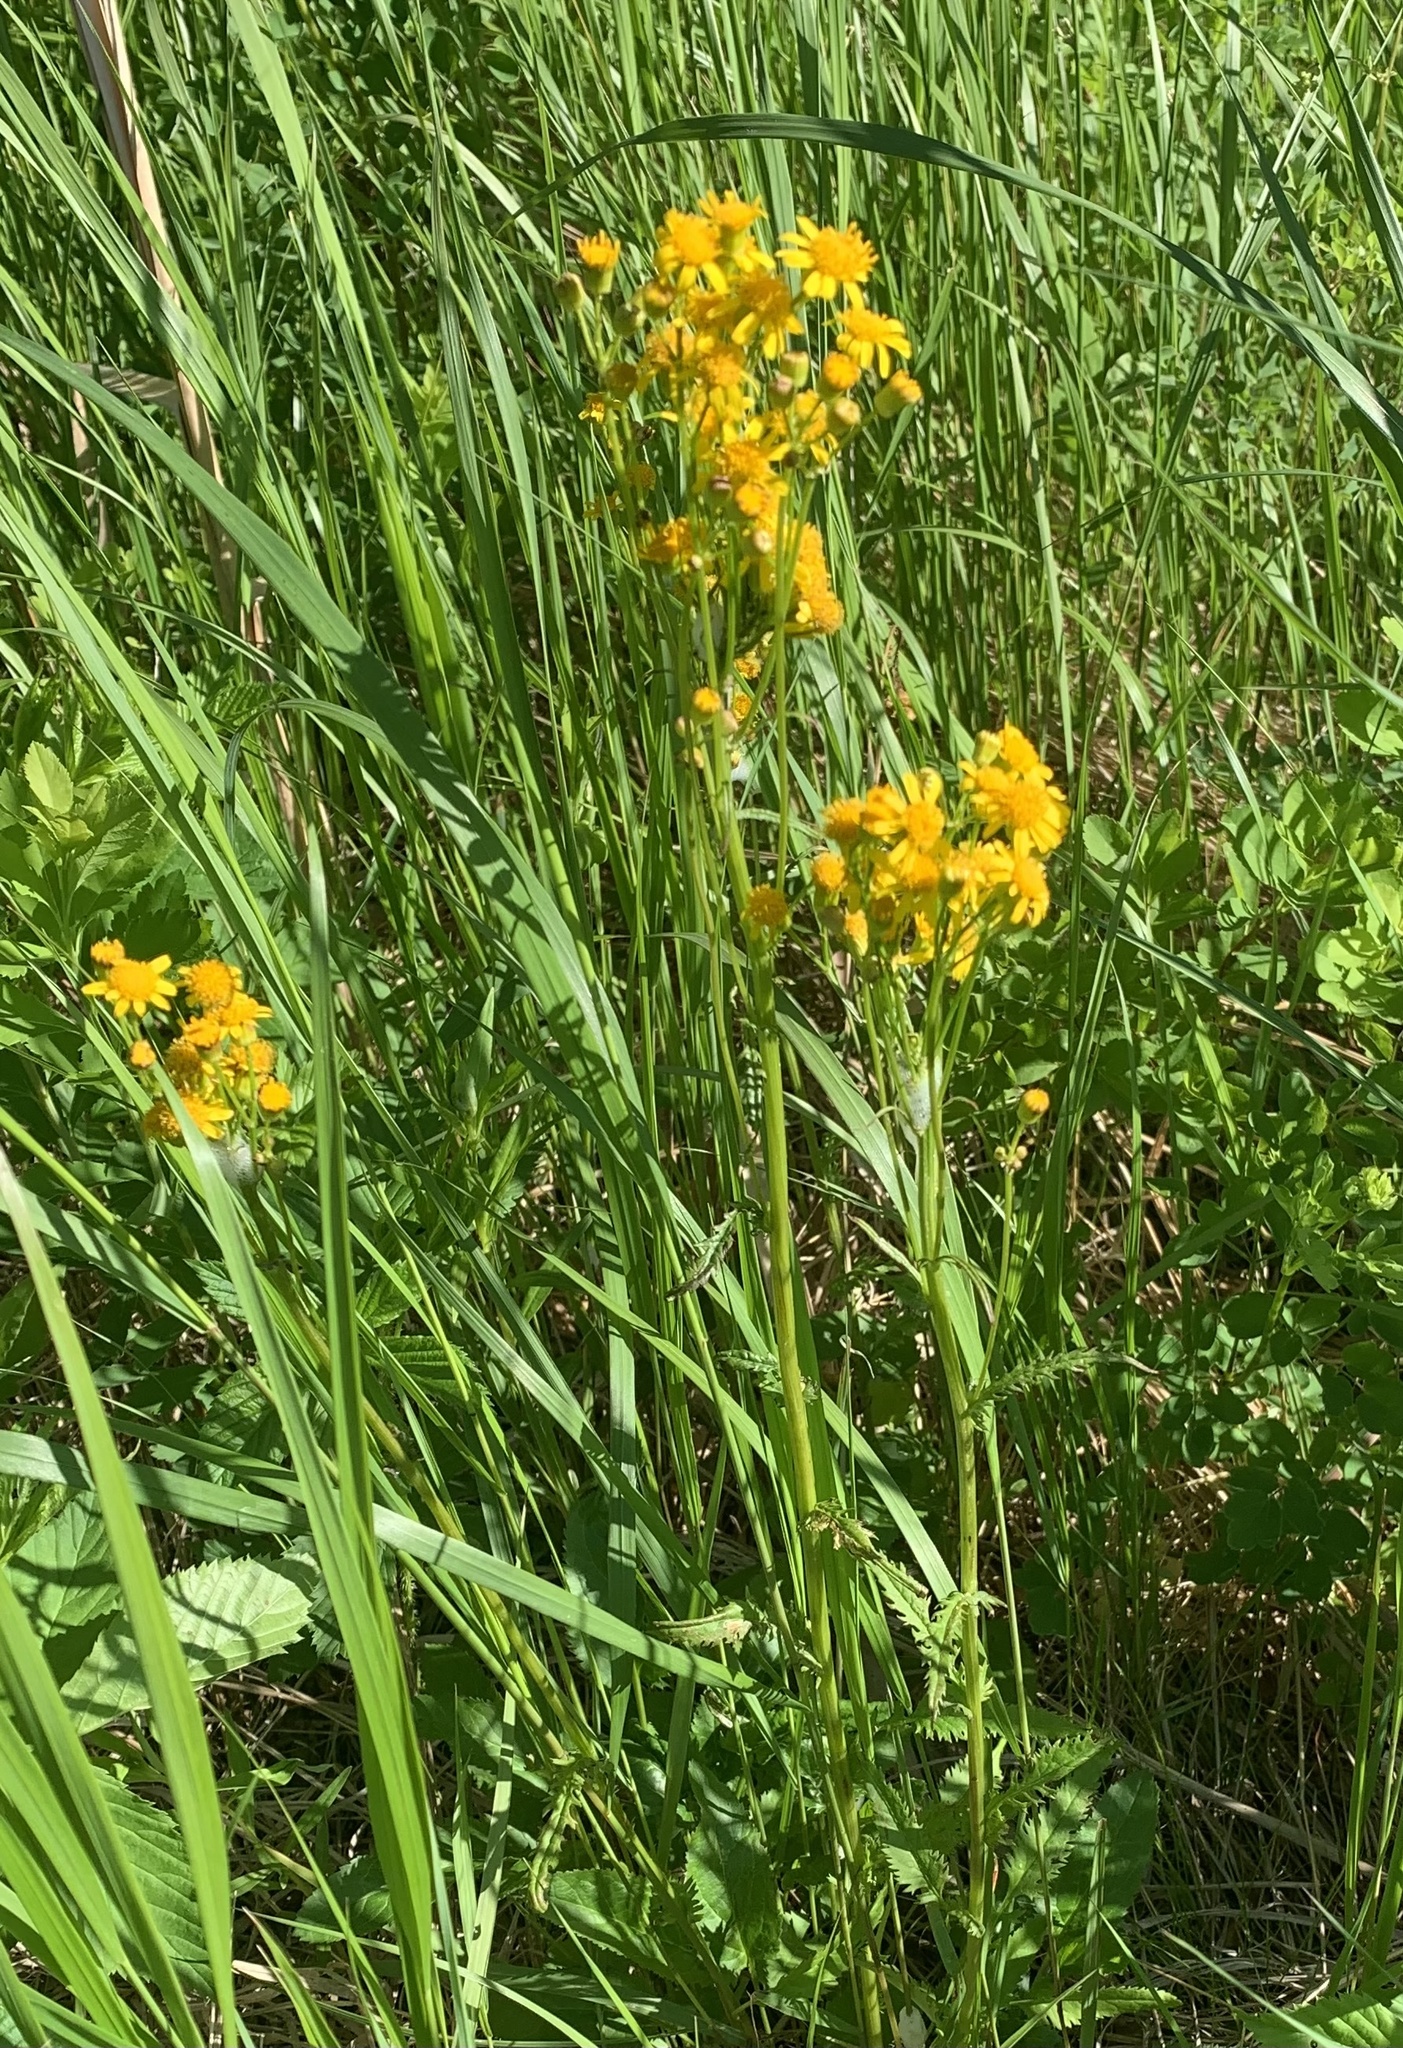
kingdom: Plantae
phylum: Tracheophyta
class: Magnoliopsida
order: Asterales
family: Asteraceae
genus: Packera
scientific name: Packera paupercula
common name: Balsam groundsel
